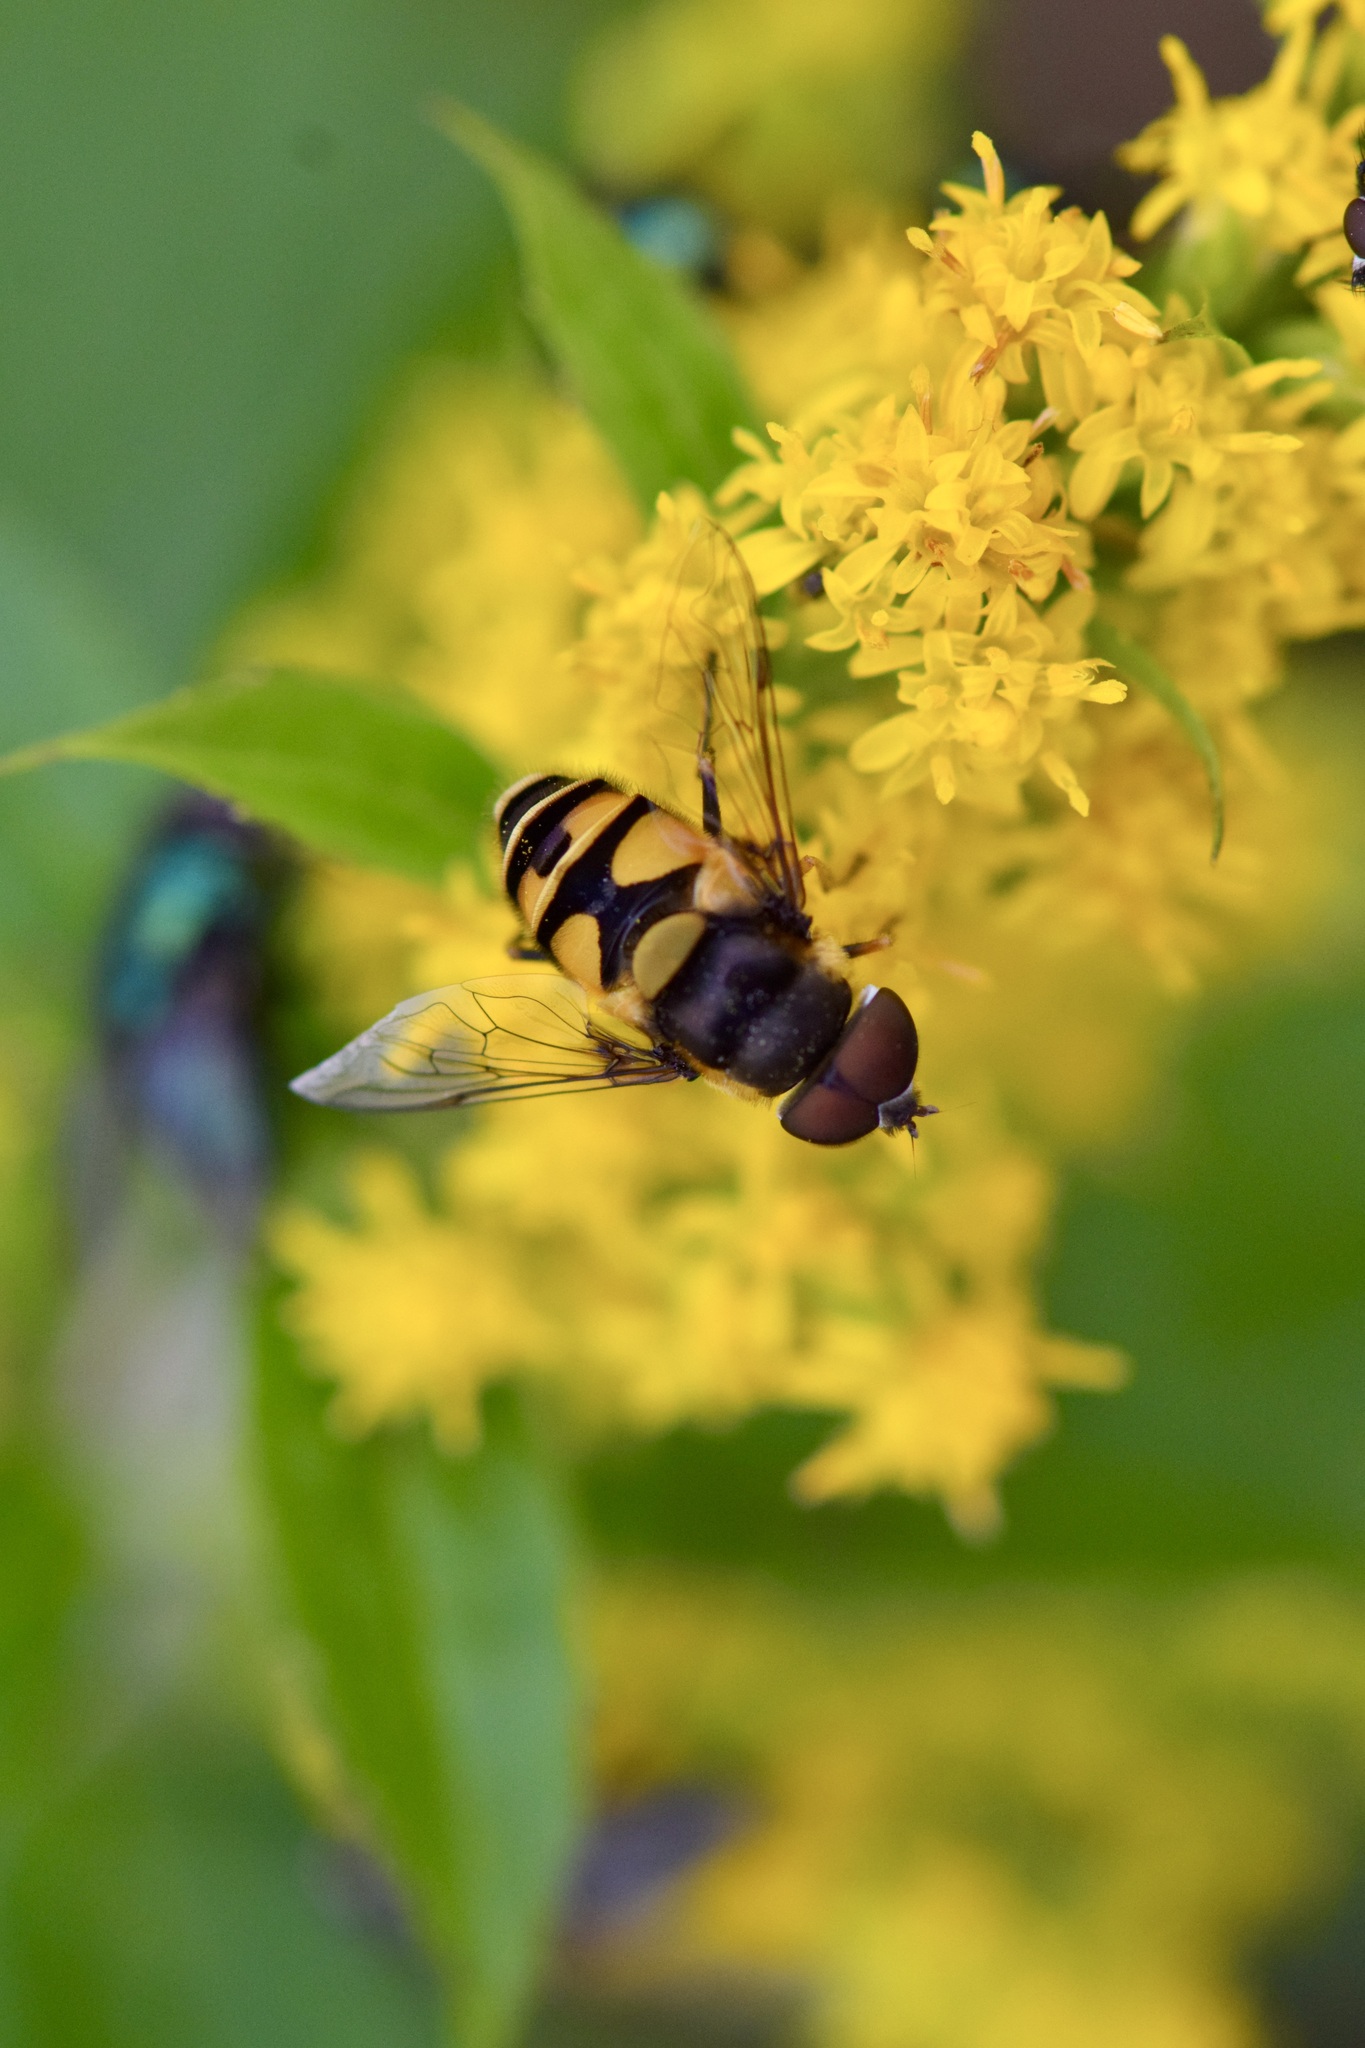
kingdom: Animalia
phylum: Arthropoda
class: Insecta
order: Diptera
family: Syrphidae
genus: Eristalis
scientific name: Eristalis transversa
